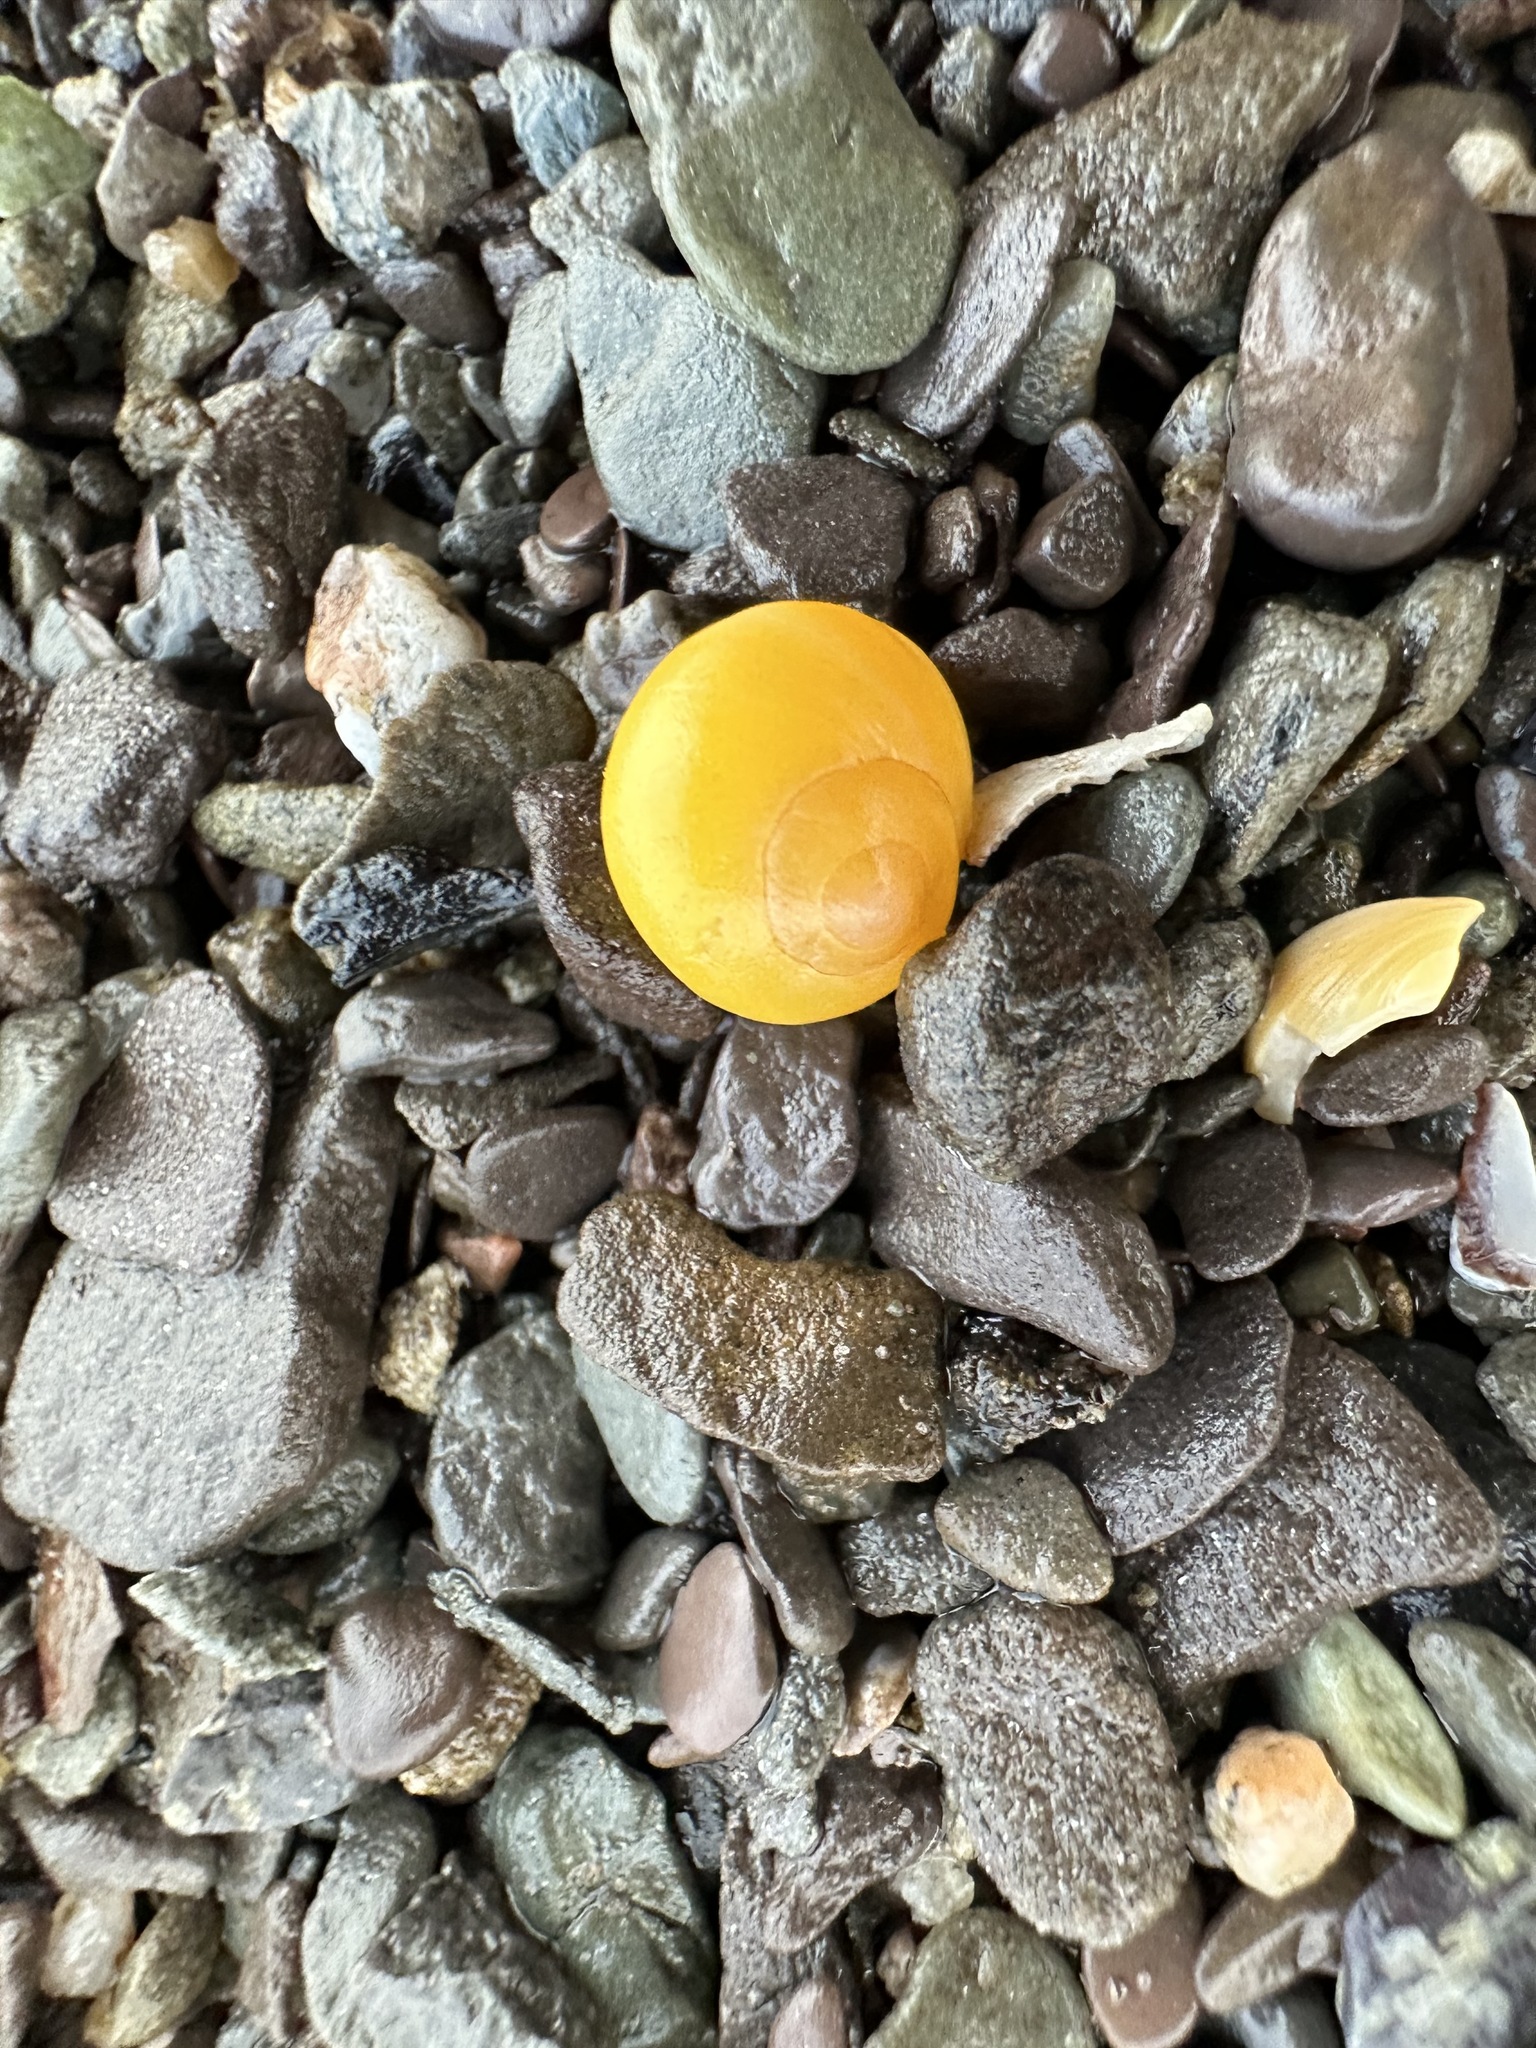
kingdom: Animalia
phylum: Mollusca
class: Gastropoda
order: Littorinimorpha
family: Littorinidae
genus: Littorina
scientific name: Littorina obtusata
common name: Flat periwinkle
